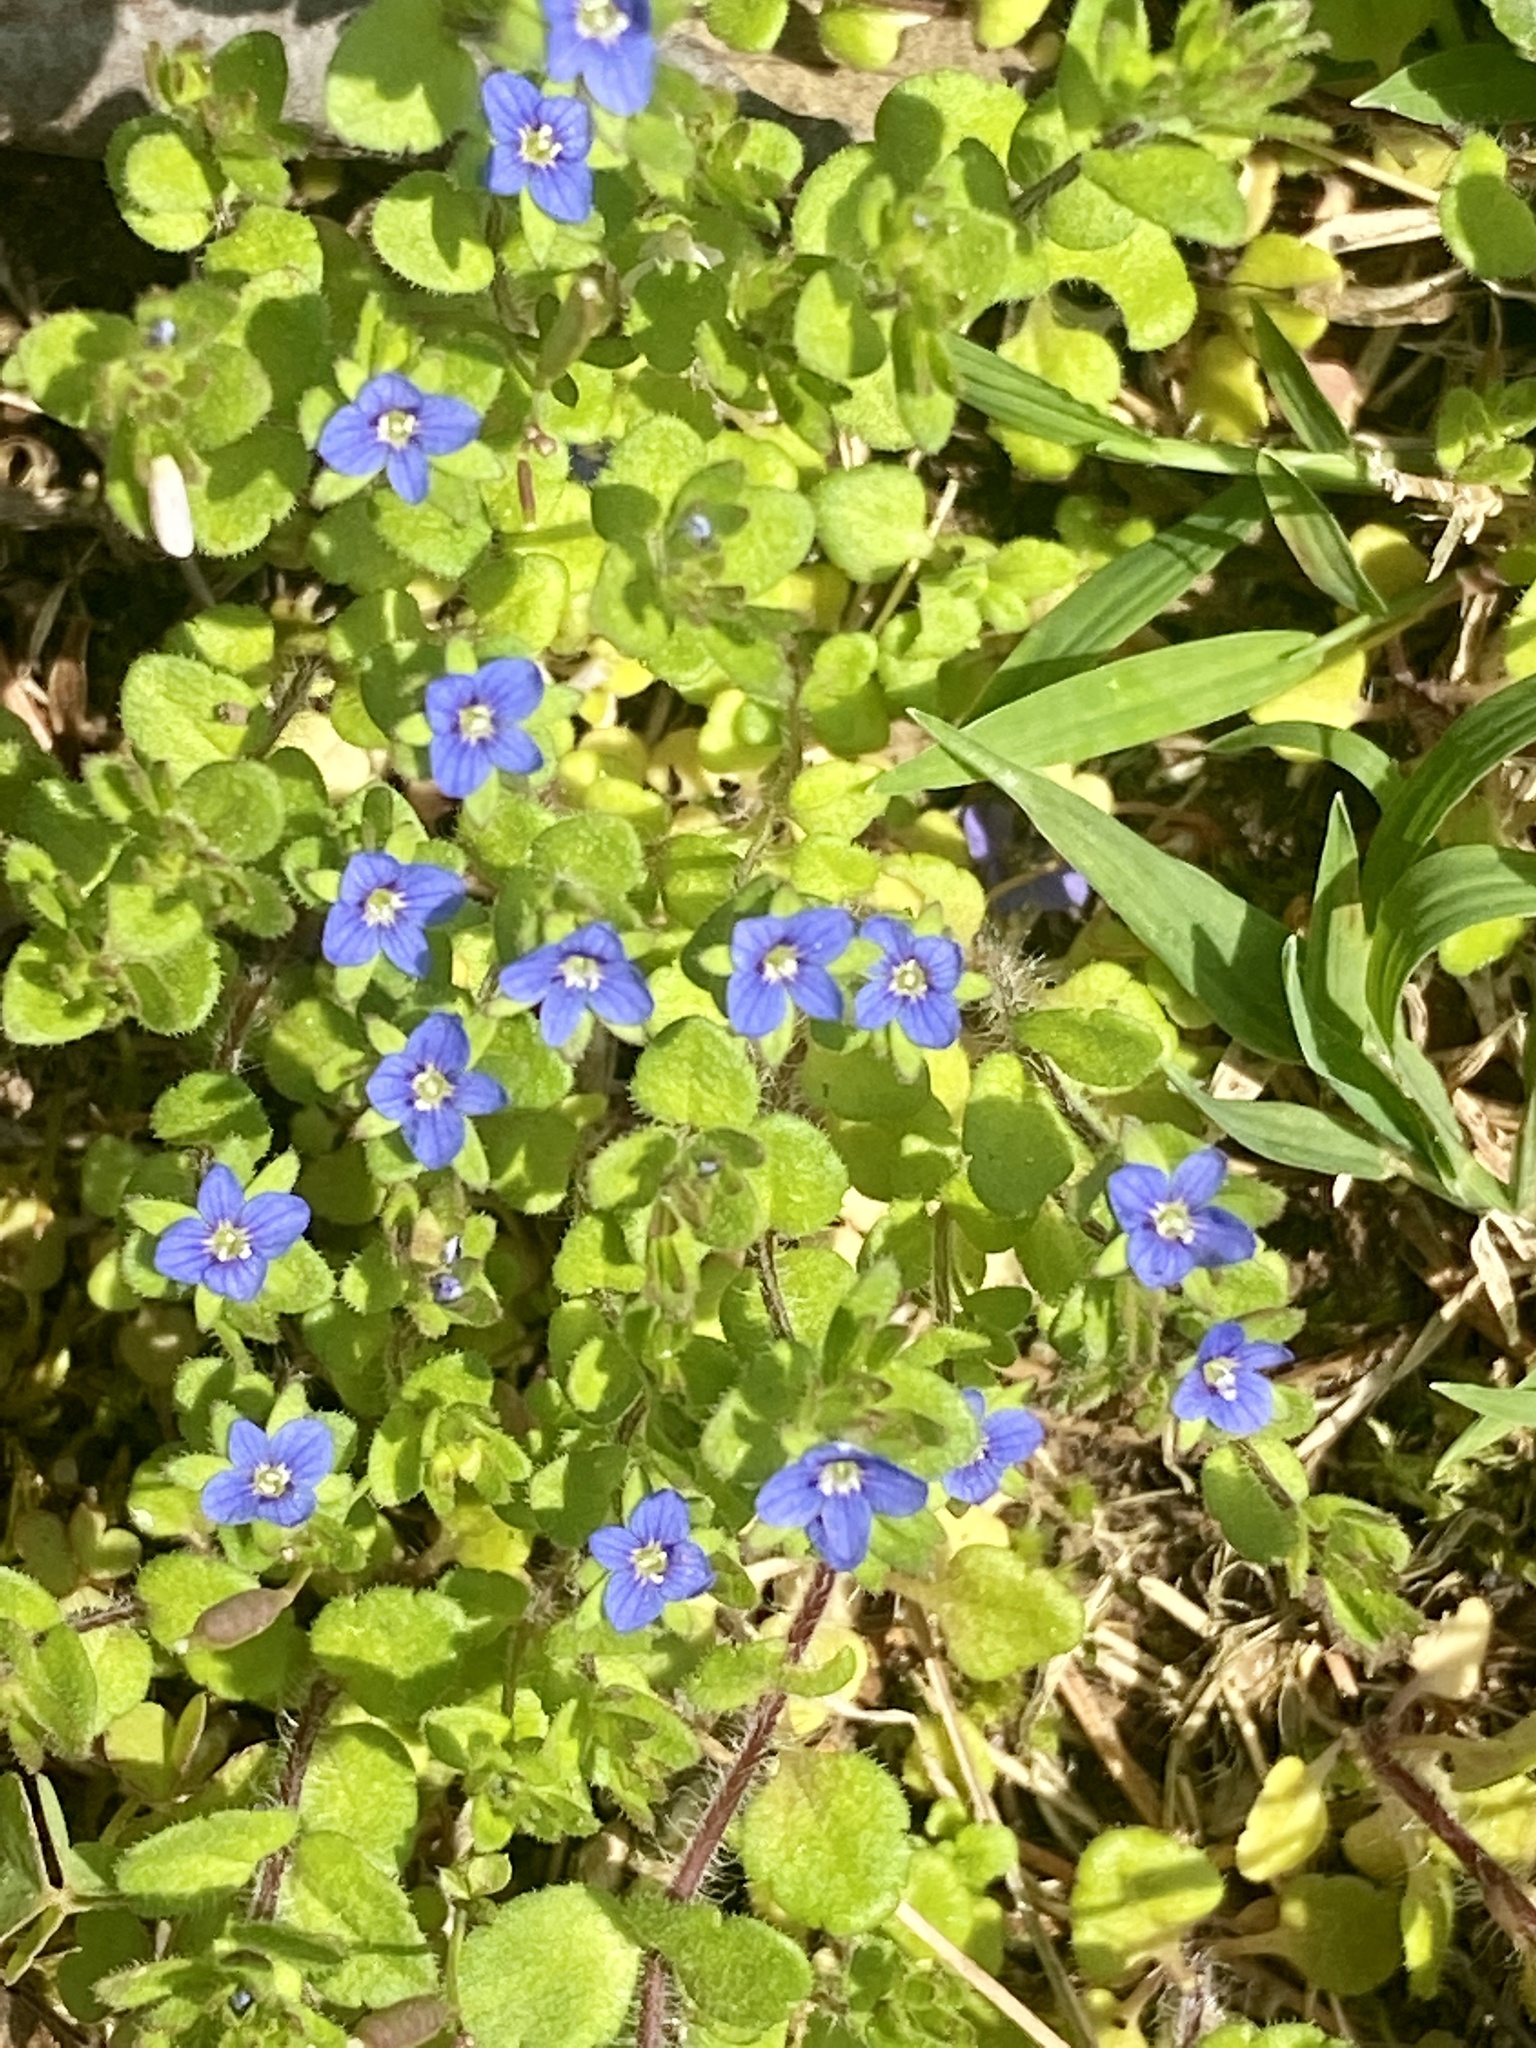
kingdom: Plantae
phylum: Tracheophyta
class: Magnoliopsida
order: Lamiales
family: Plantaginaceae
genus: Veronica
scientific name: Veronica arvensis
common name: Corn speedwell
